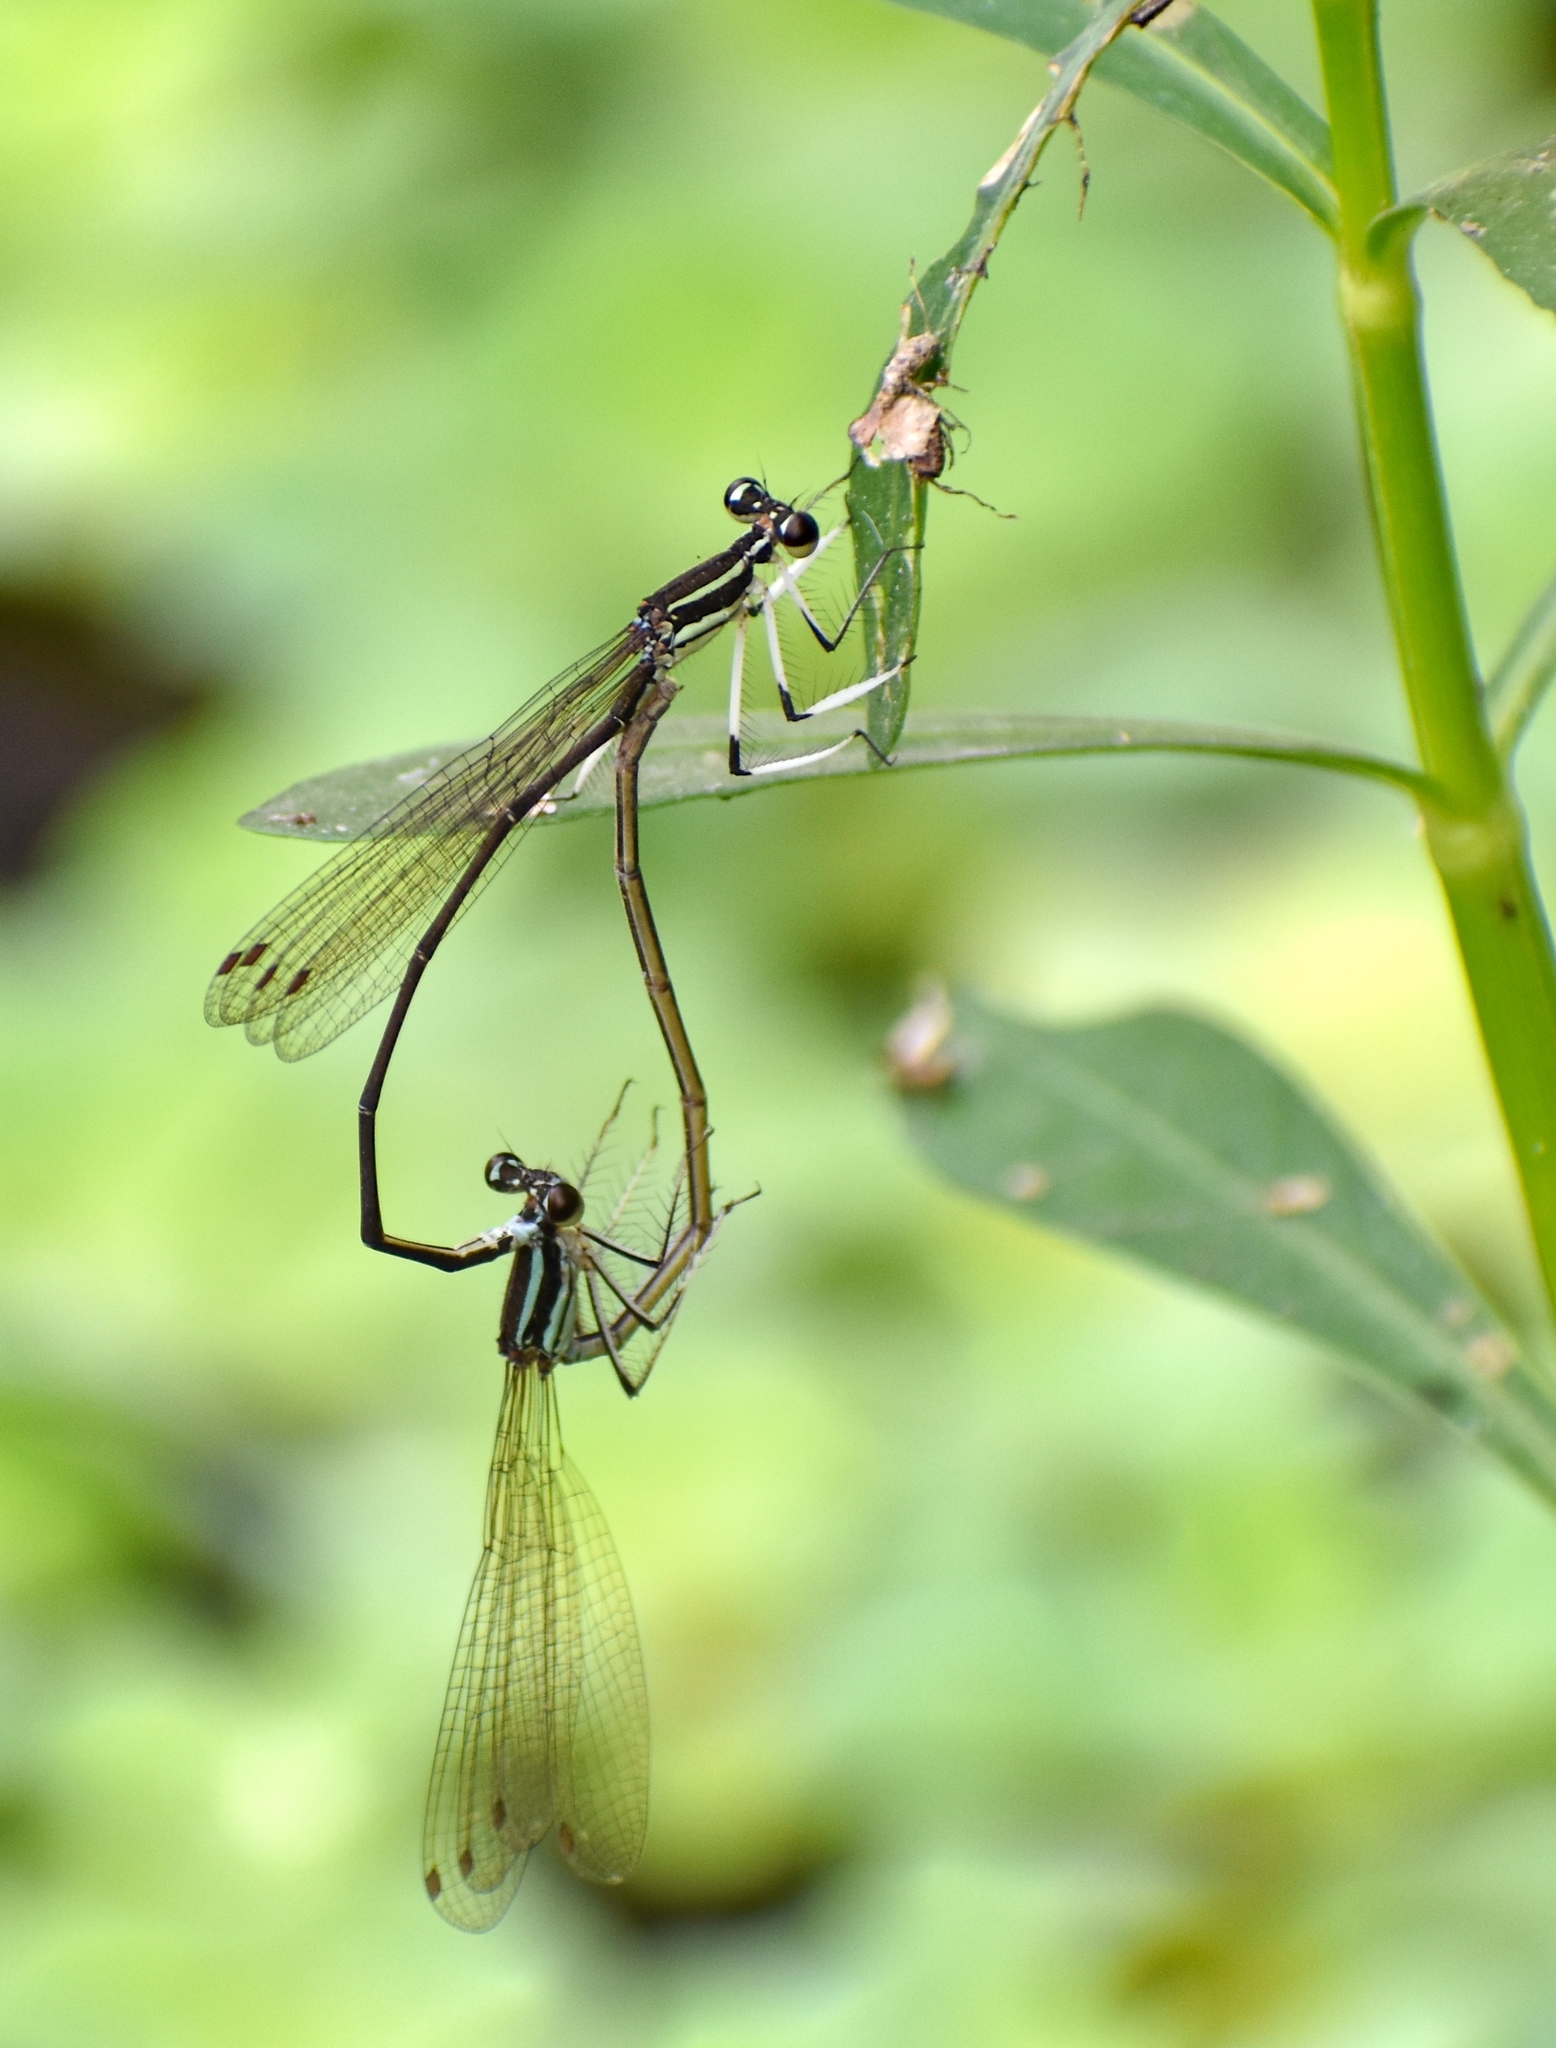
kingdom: Animalia
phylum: Arthropoda
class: Insecta
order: Odonata
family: Platycnemididae
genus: Pseudocopera
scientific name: Pseudocopera ciliata
